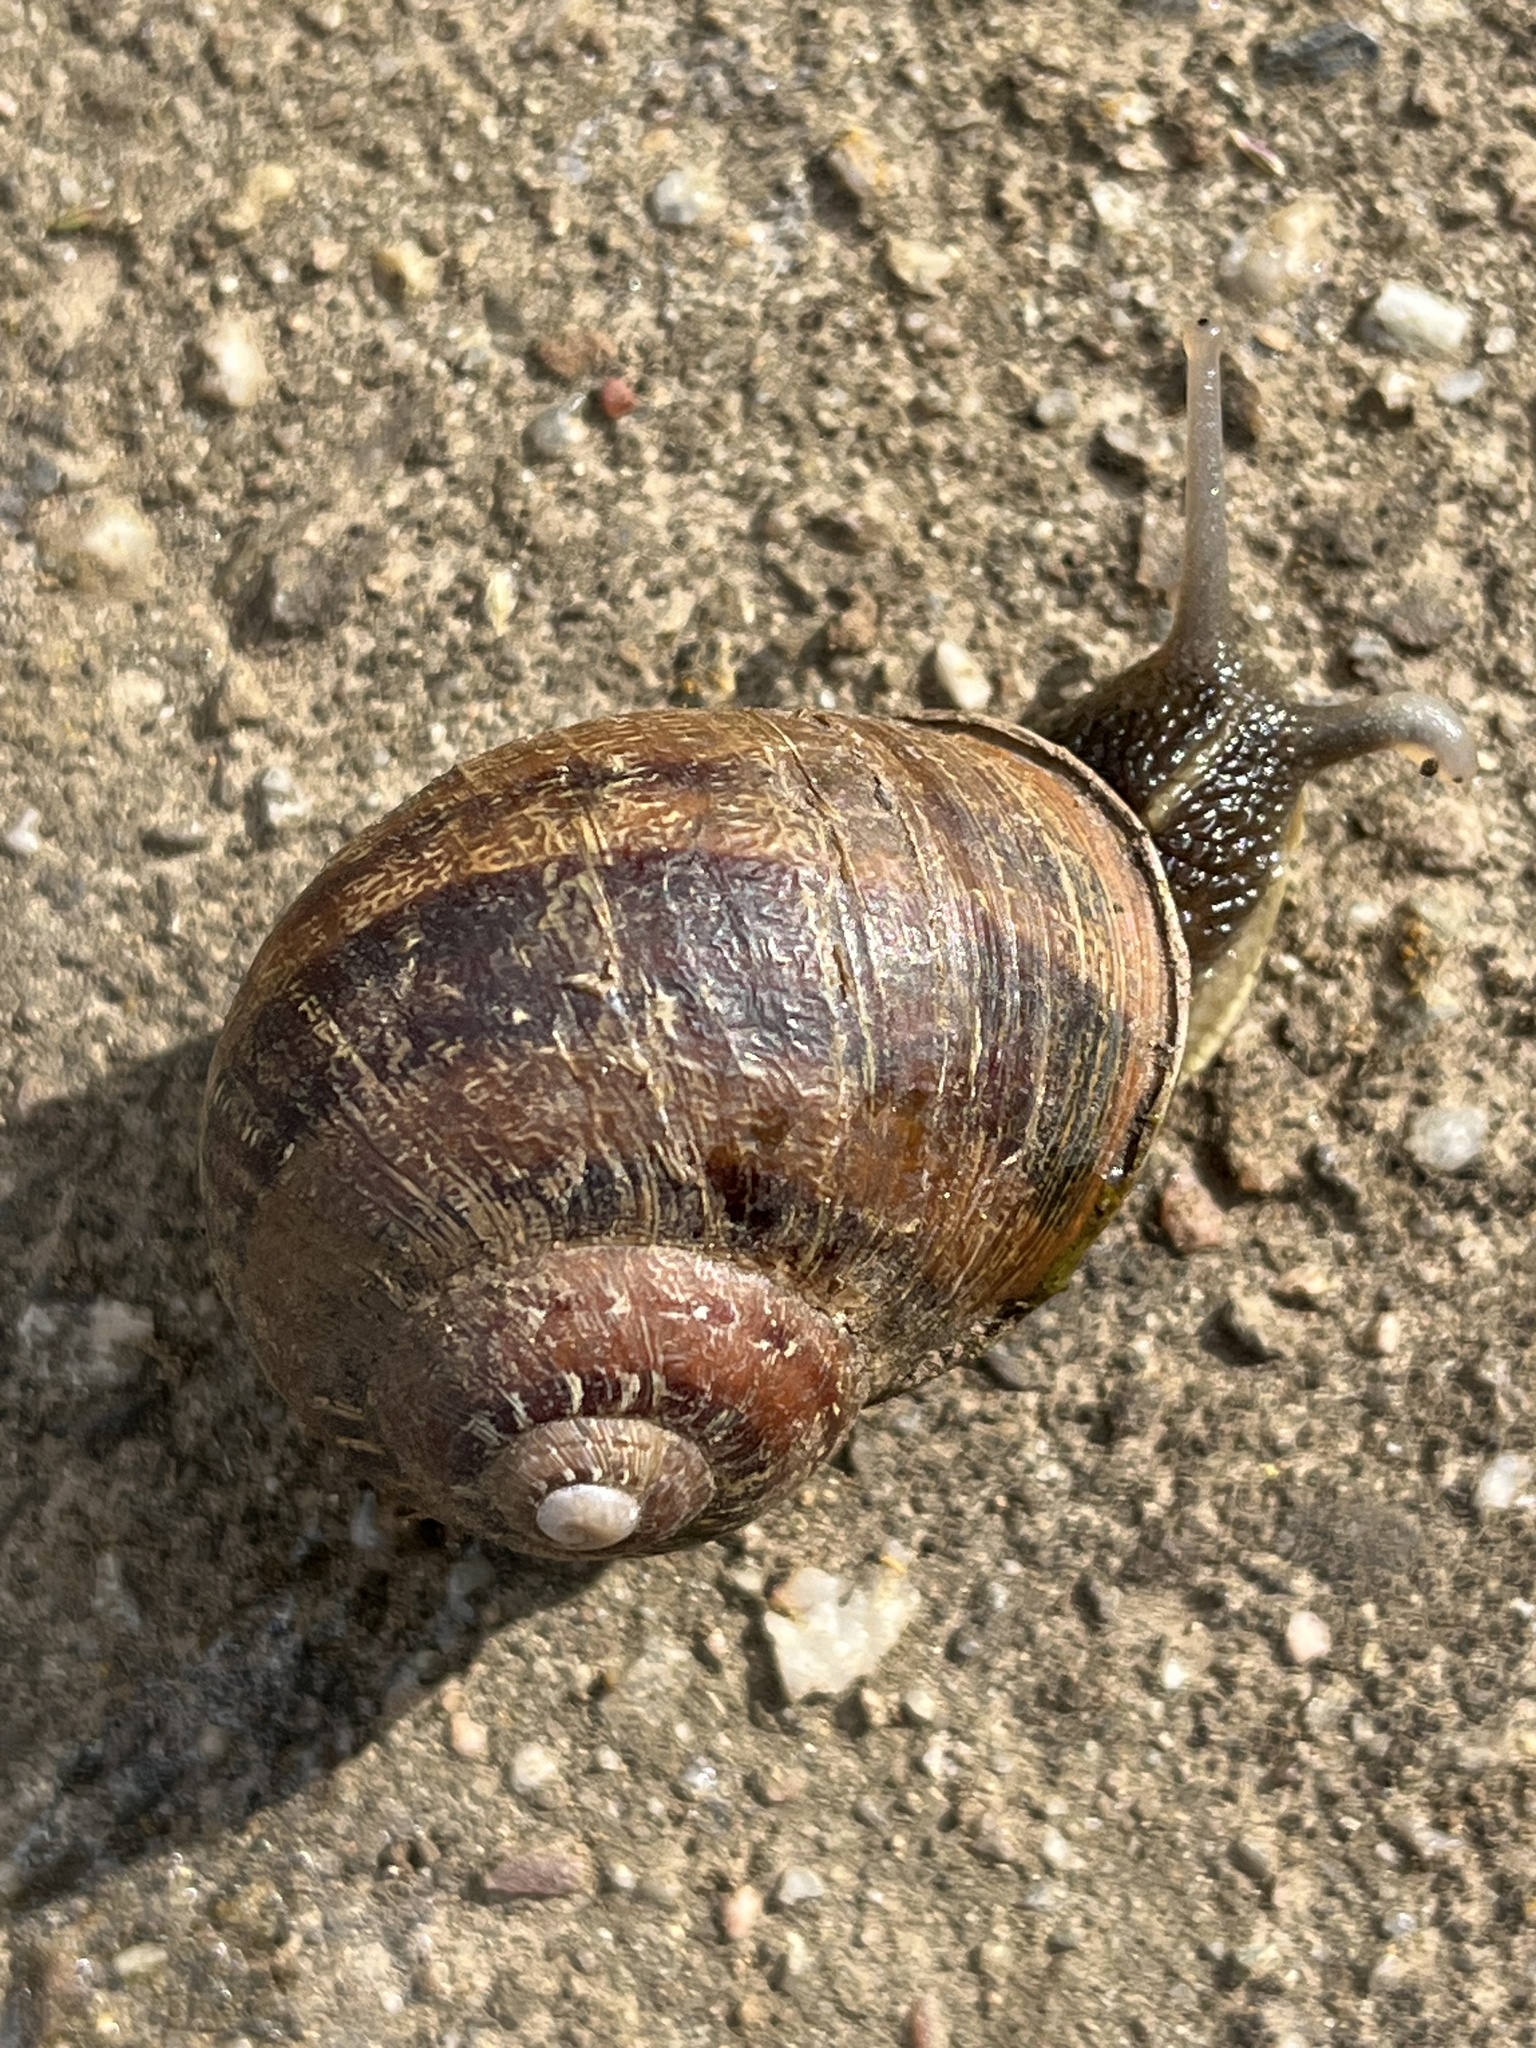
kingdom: Animalia
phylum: Mollusca
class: Gastropoda
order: Stylommatophora
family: Helicidae
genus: Cornu
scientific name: Cornu aspersum
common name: Brown garden snail
